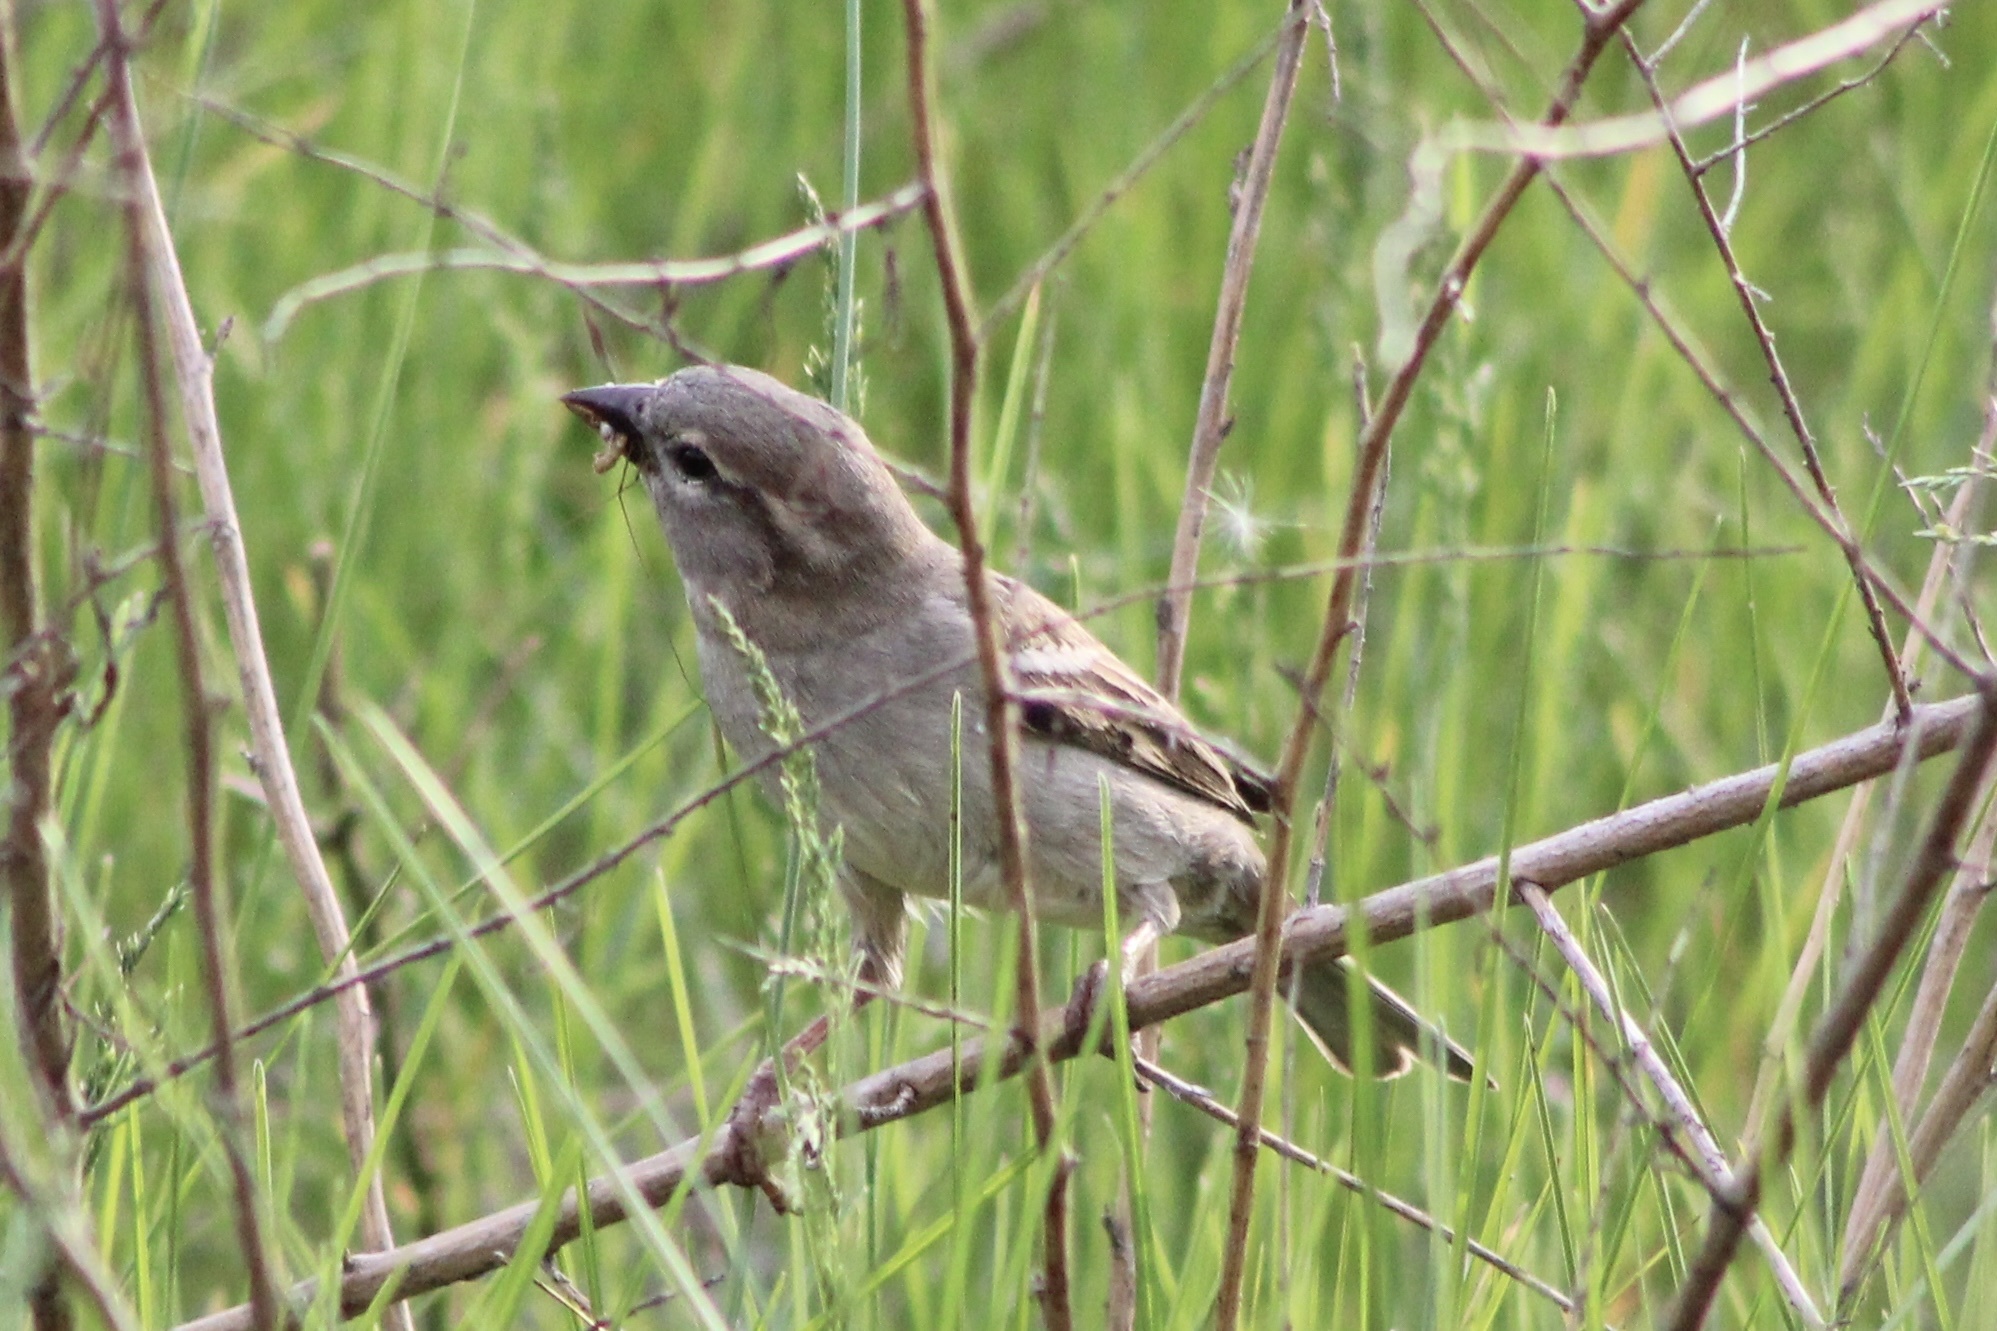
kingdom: Animalia
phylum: Chordata
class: Aves
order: Passeriformes
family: Passeridae
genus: Passer
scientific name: Passer domesticus
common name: House sparrow
